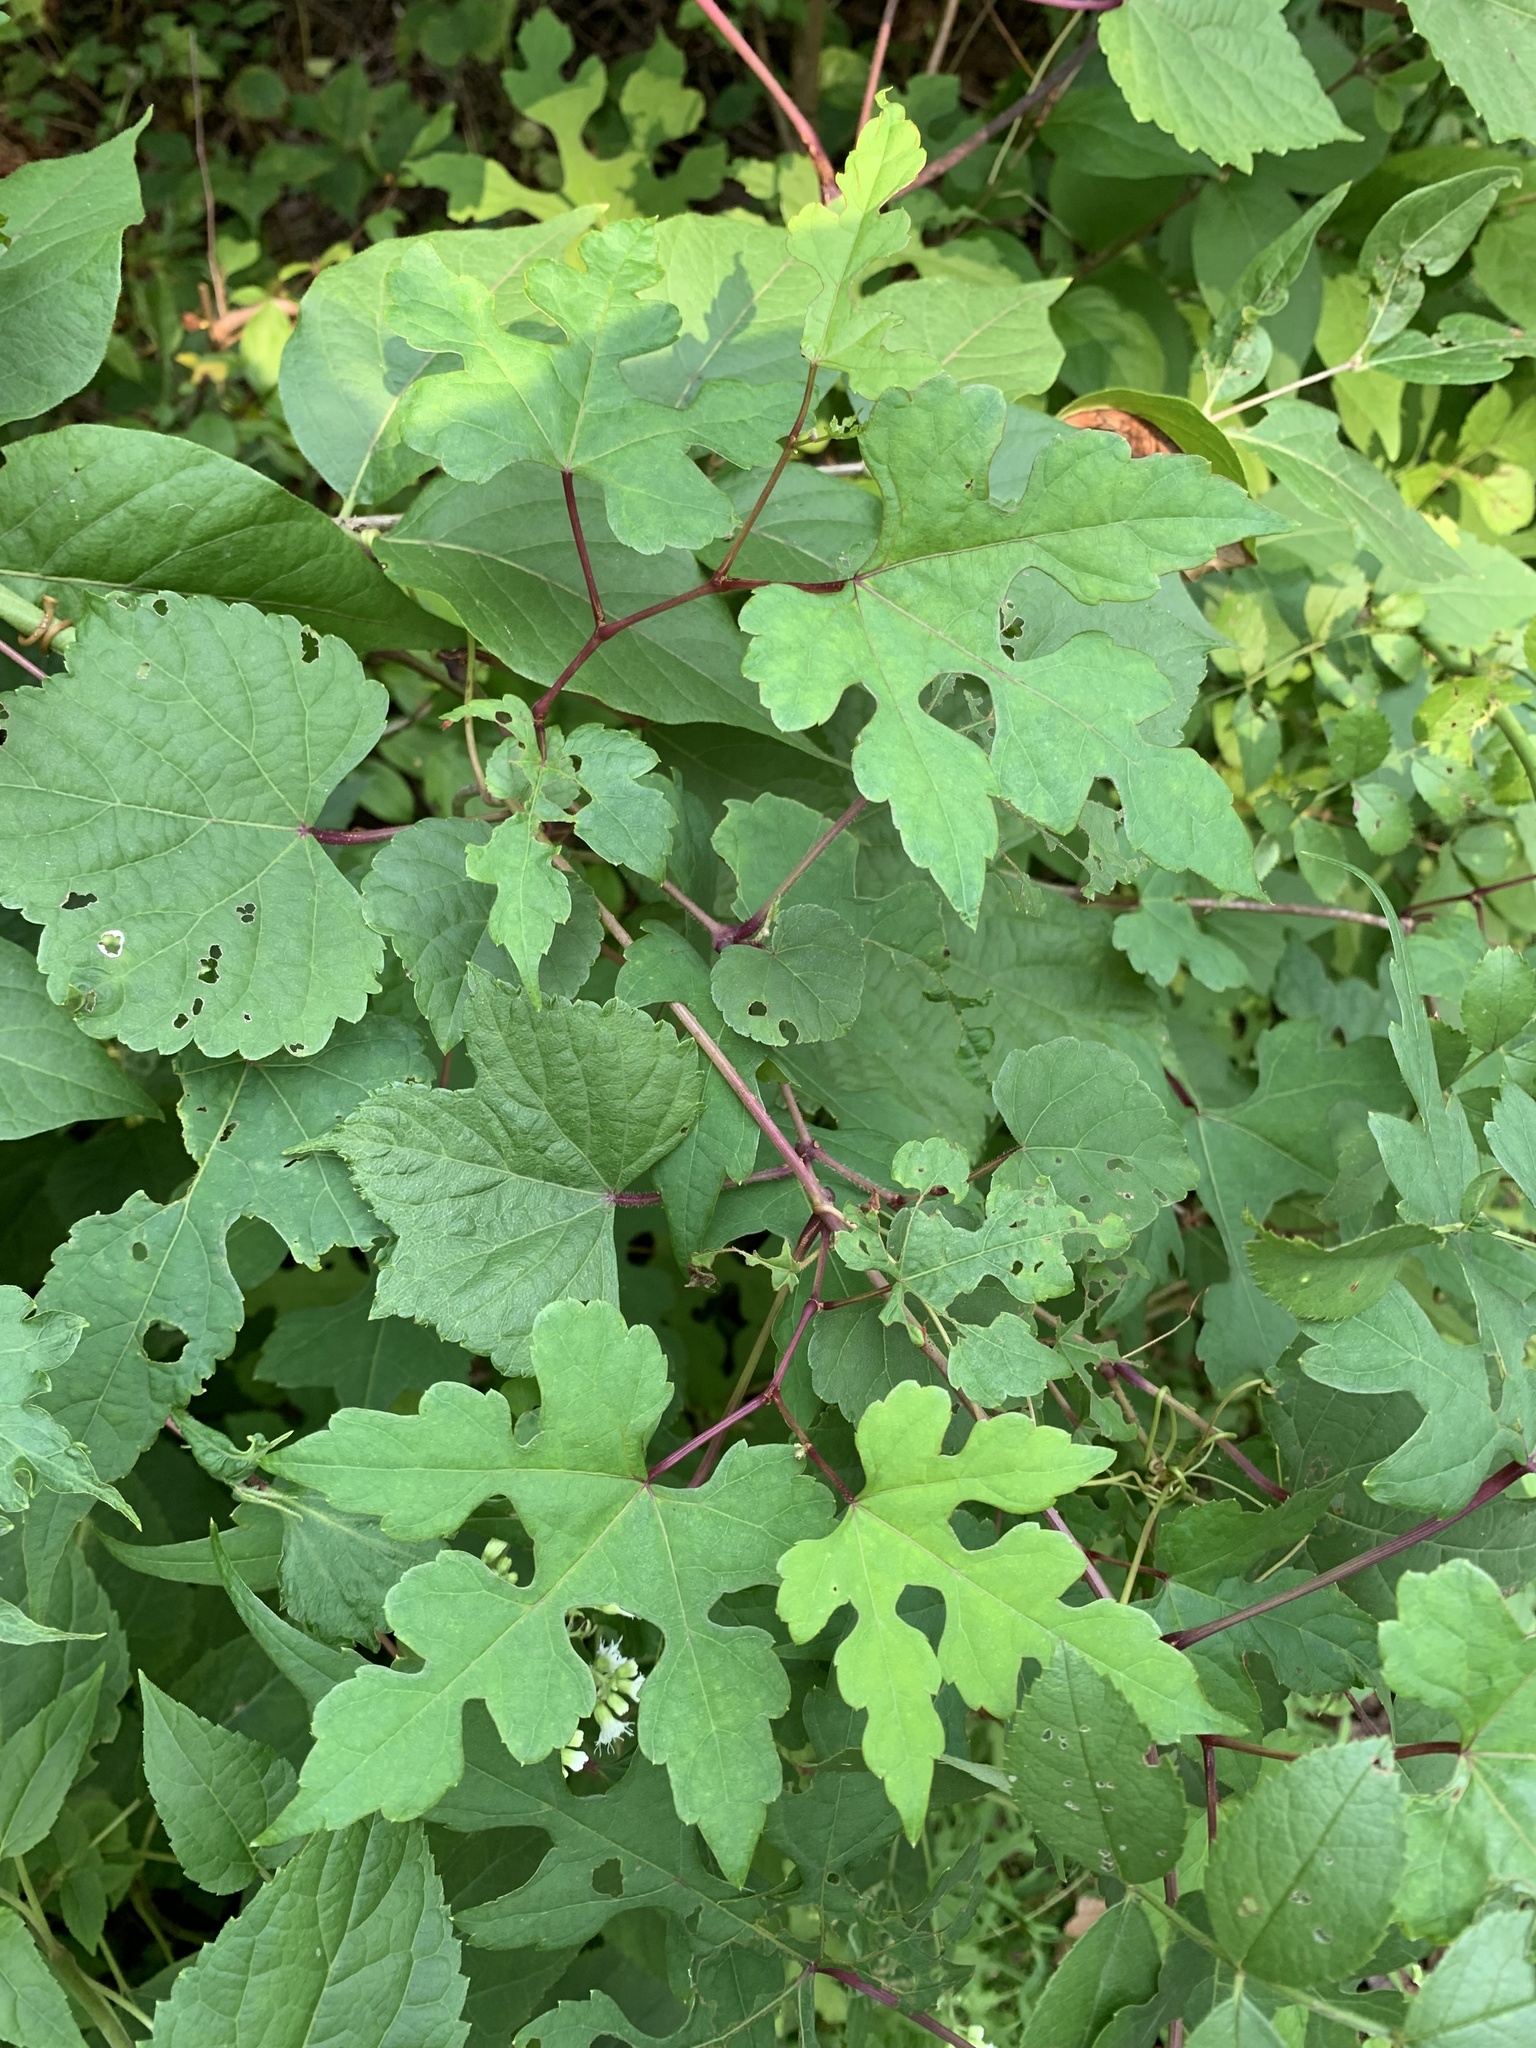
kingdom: Plantae
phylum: Tracheophyta
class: Magnoliopsida
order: Vitales
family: Vitaceae
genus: Ampelopsis
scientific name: Ampelopsis glandulosa
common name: Amur peppervine
